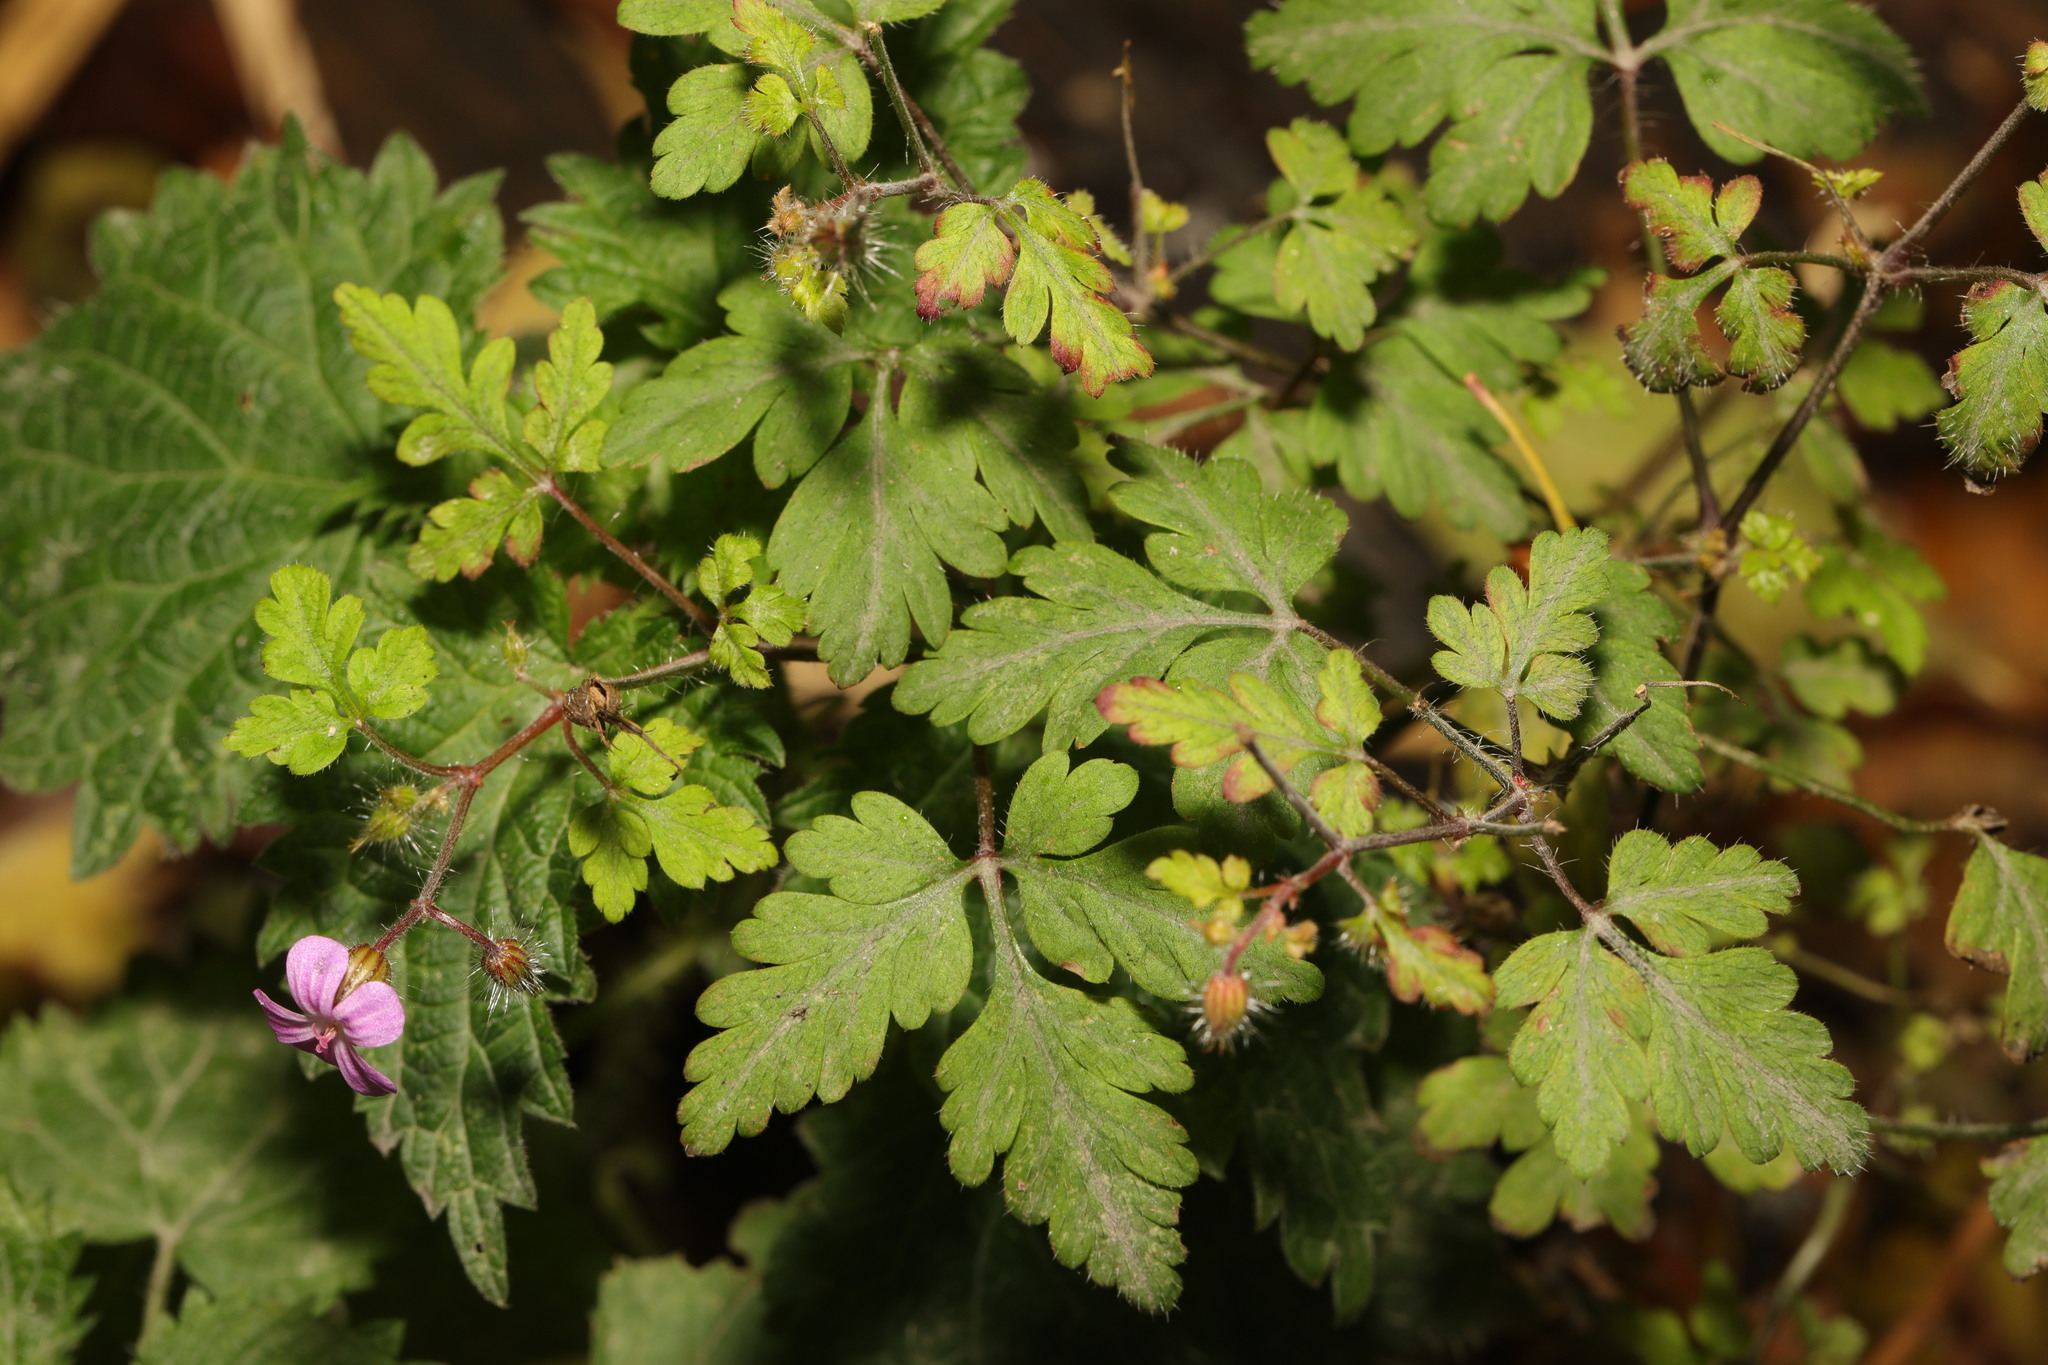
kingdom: Plantae
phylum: Tracheophyta
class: Magnoliopsida
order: Geraniales
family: Geraniaceae
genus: Geranium
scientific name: Geranium robertianum
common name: Herb-robert
